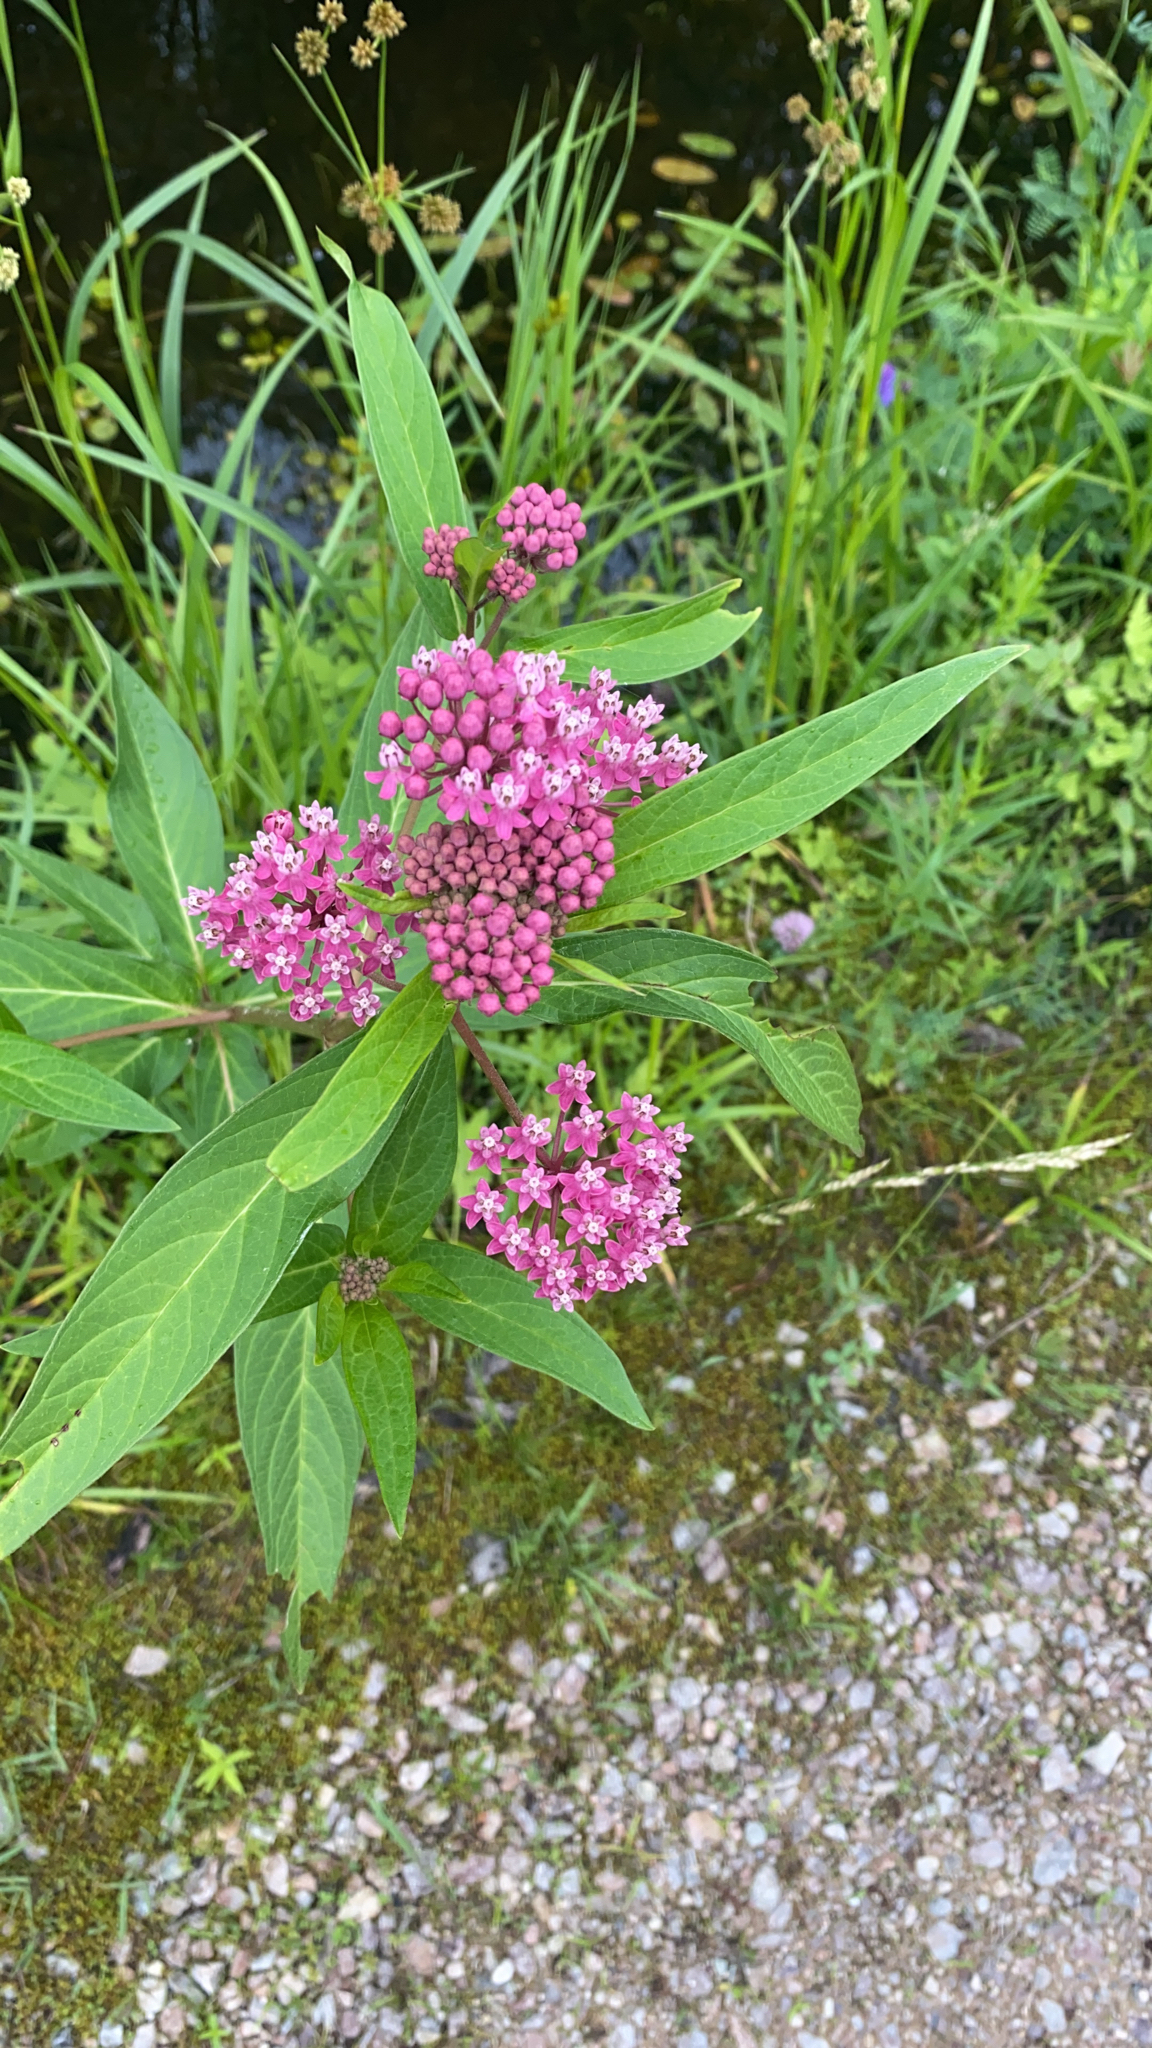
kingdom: Plantae
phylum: Tracheophyta
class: Magnoliopsida
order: Gentianales
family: Apocynaceae
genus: Asclepias
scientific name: Asclepias incarnata
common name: Swamp milkweed
